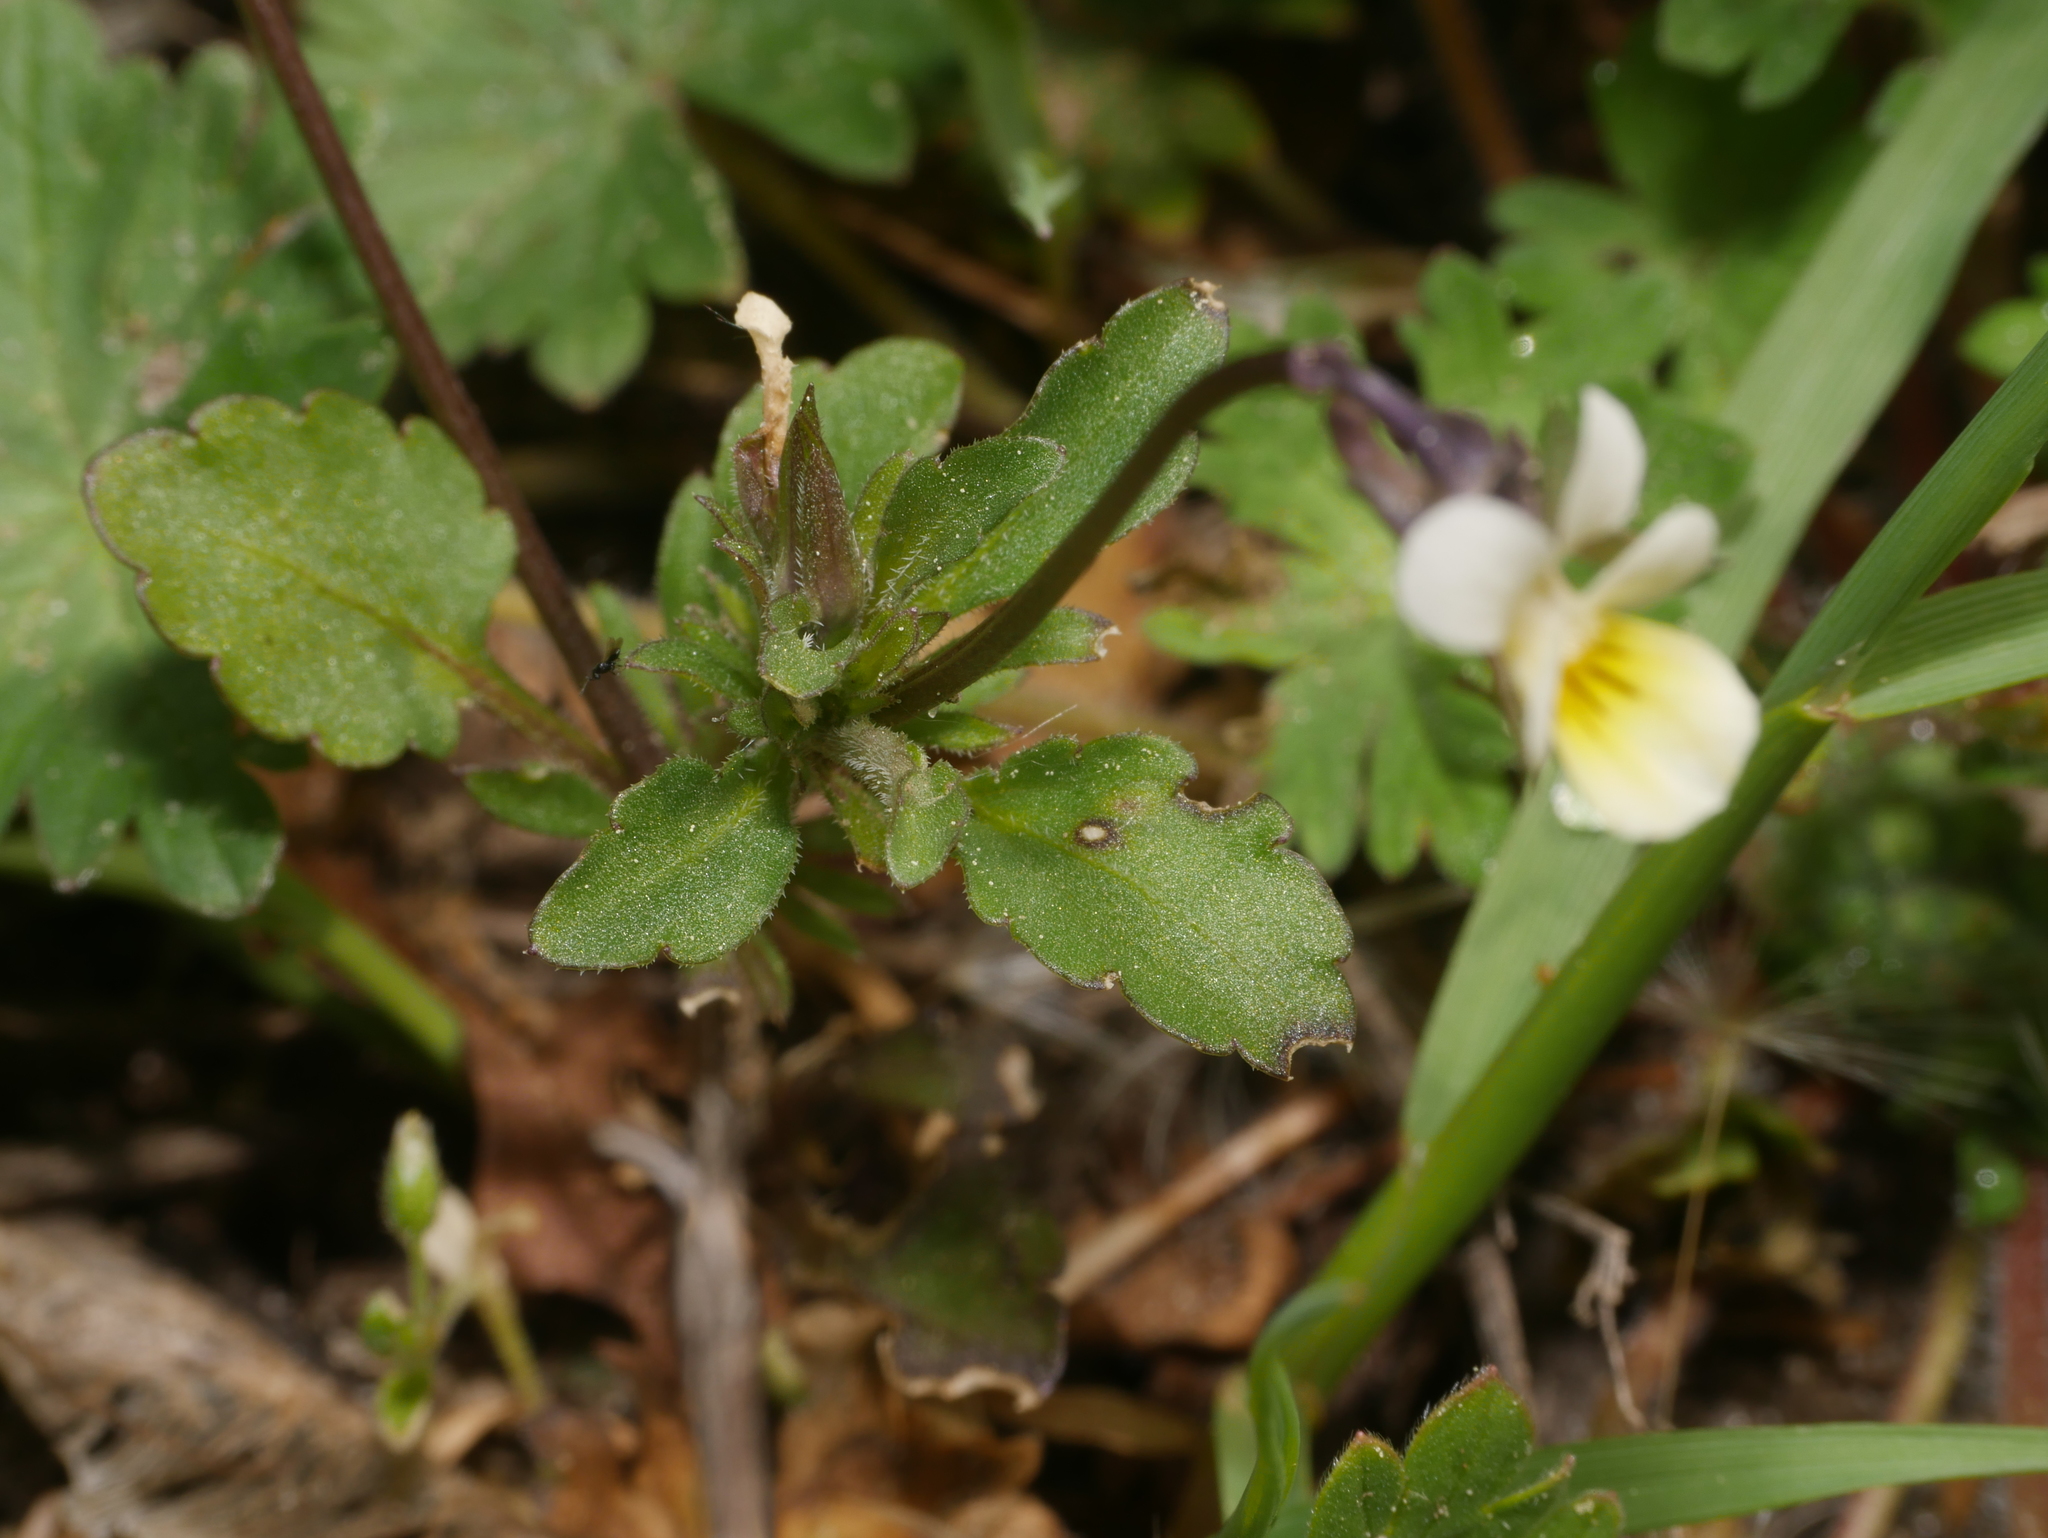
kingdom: Plantae
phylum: Tracheophyta
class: Magnoliopsida
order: Malpighiales
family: Violaceae
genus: Viola
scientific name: Viola arvensis
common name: Field pansy
